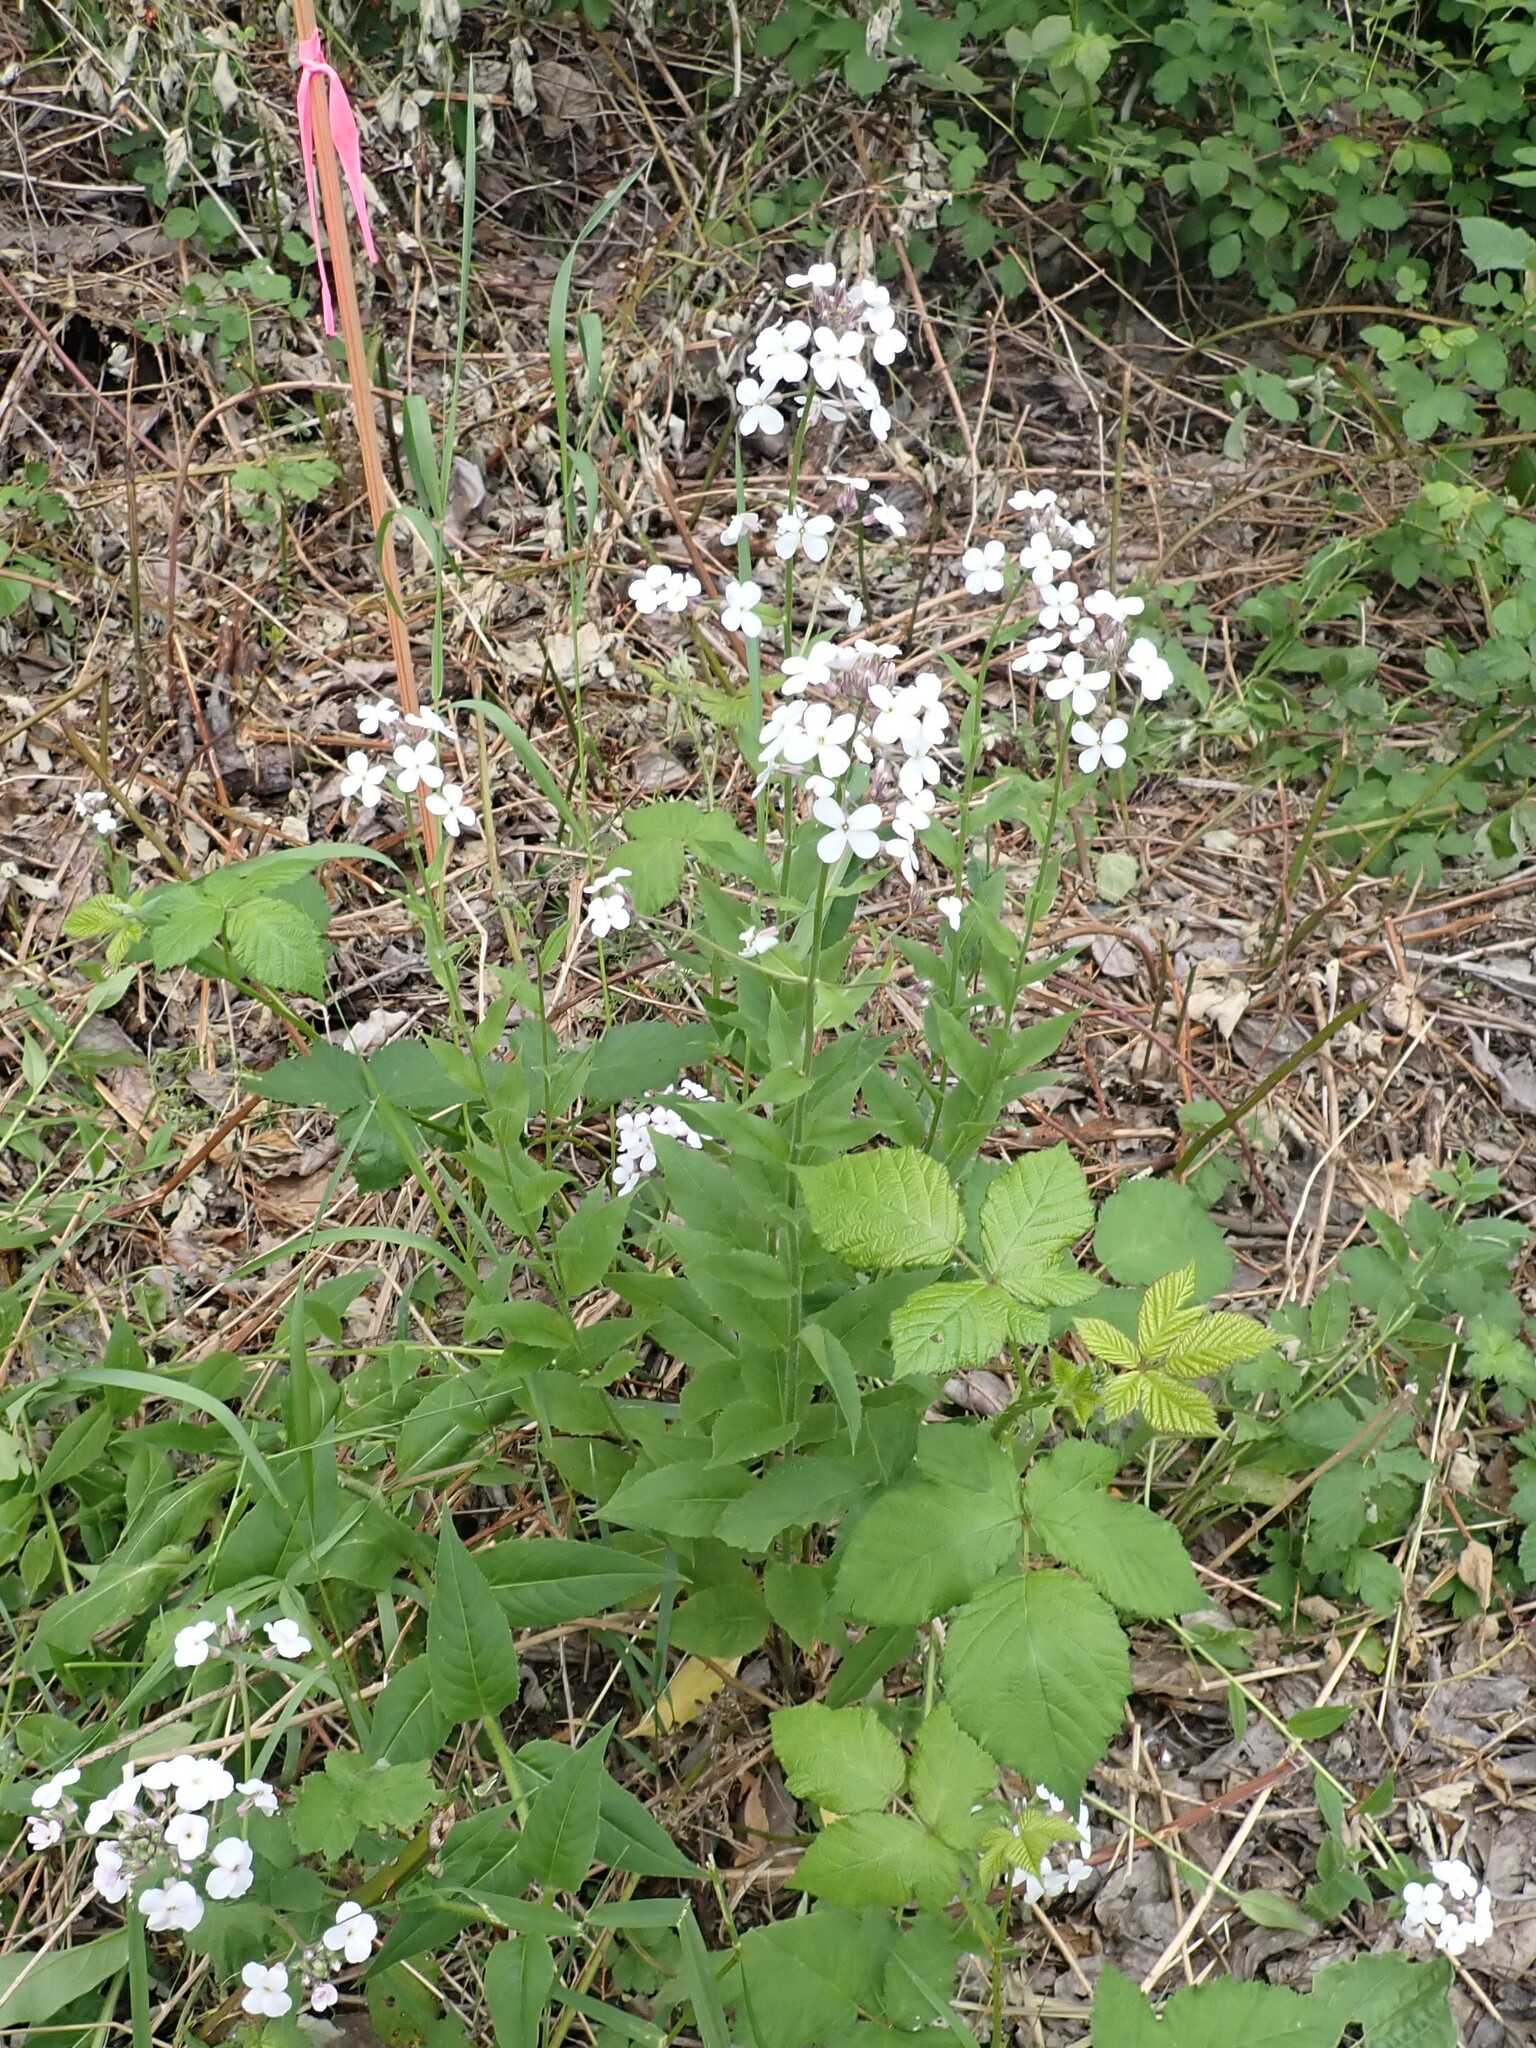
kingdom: Plantae
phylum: Tracheophyta
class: Magnoliopsida
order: Brassicales
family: Brassicaceae
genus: Hesperis
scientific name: Hesperis matronalis
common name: Dame's-violet
